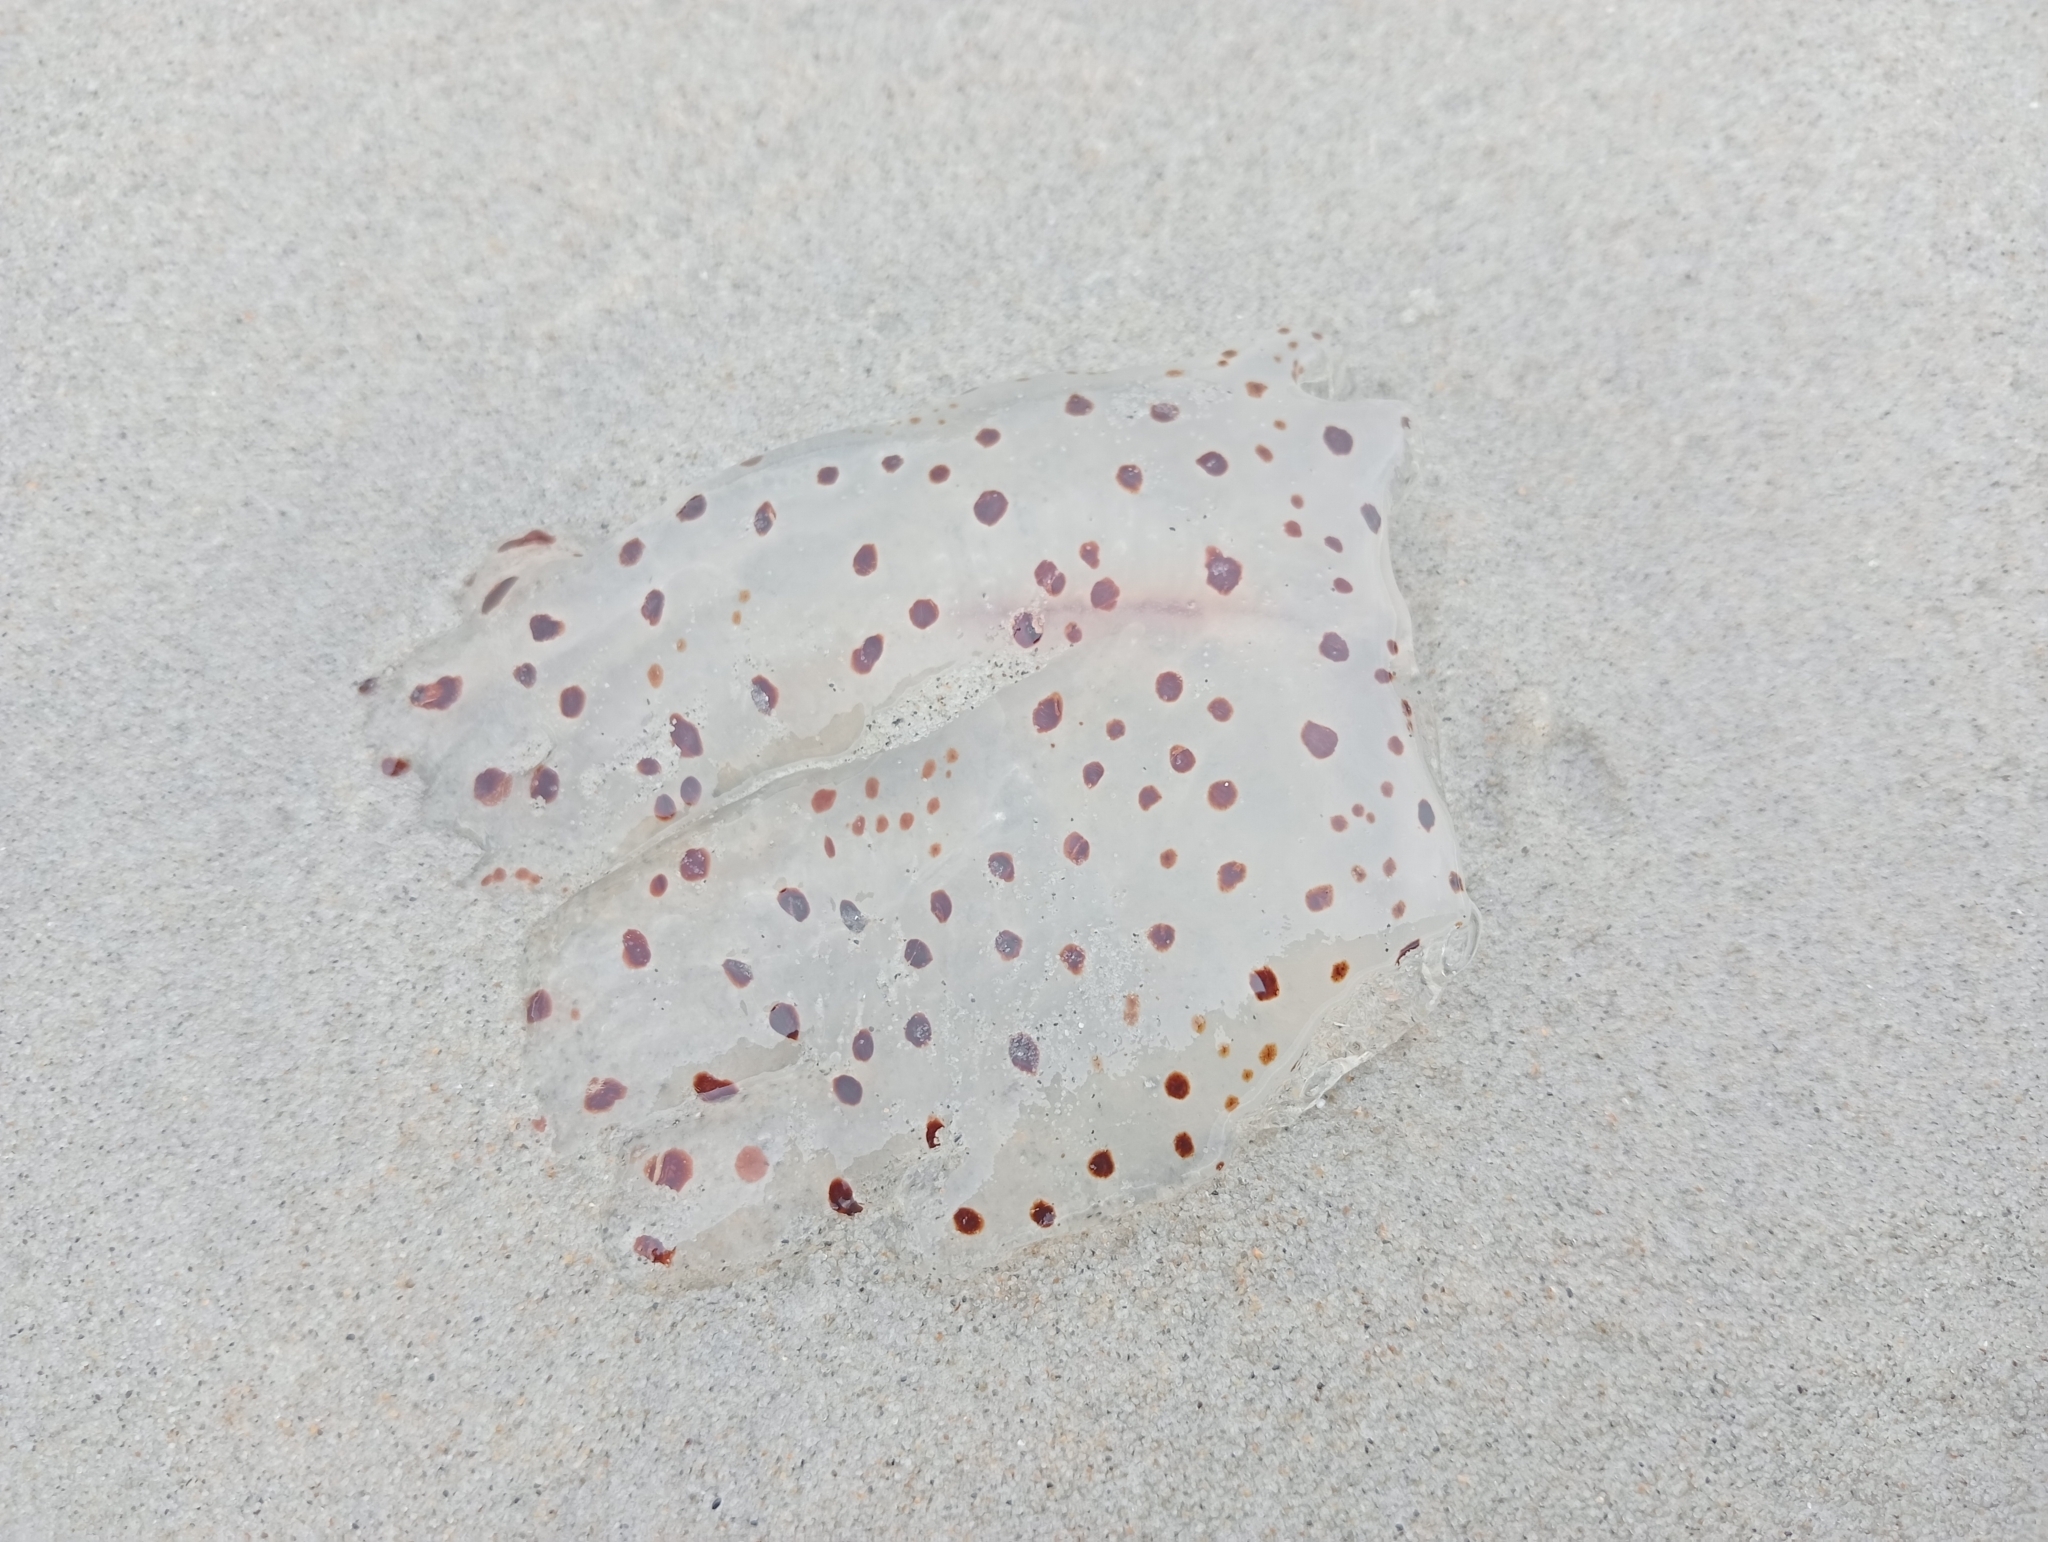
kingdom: Animalia
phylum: Cnidaria
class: Scyphozoa
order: Semaeostomeae
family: Cyaneidae
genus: Desmonema
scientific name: Desmonema gaudichaudi
